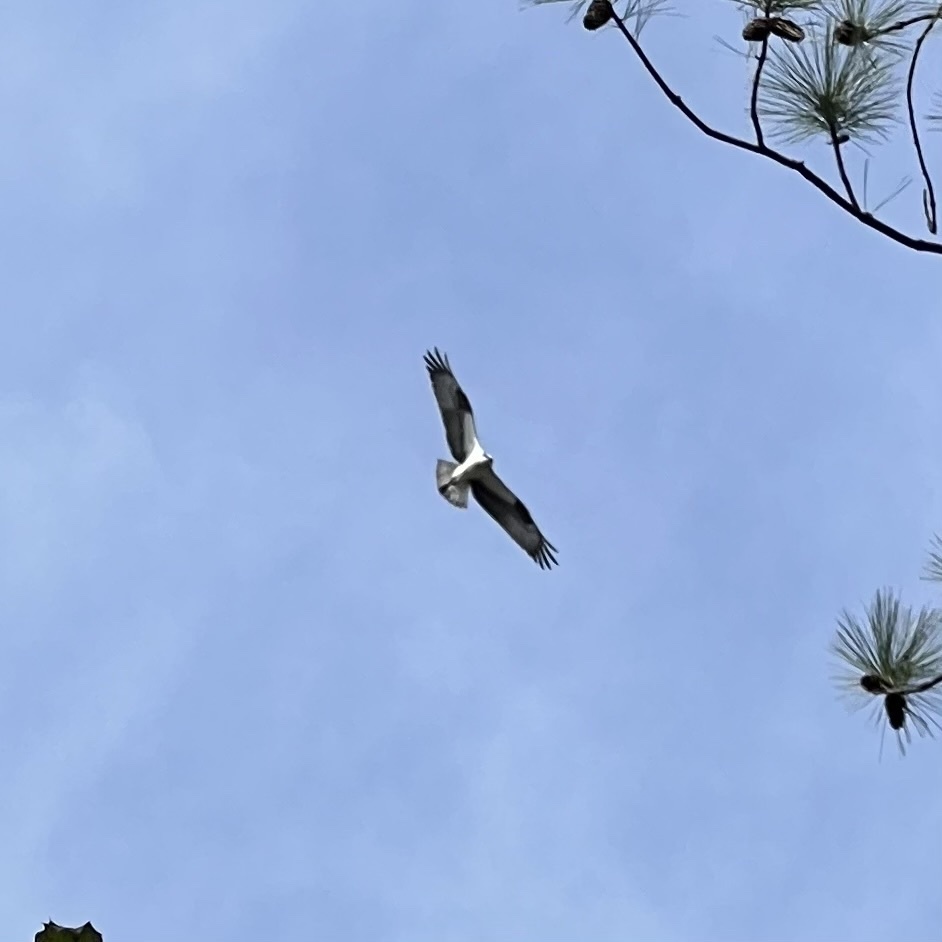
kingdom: Animalia
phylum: Chordata
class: Aves
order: Accipitriformes
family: Pandionidae
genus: Pandion
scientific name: Pandion haliaetus
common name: Osprey
